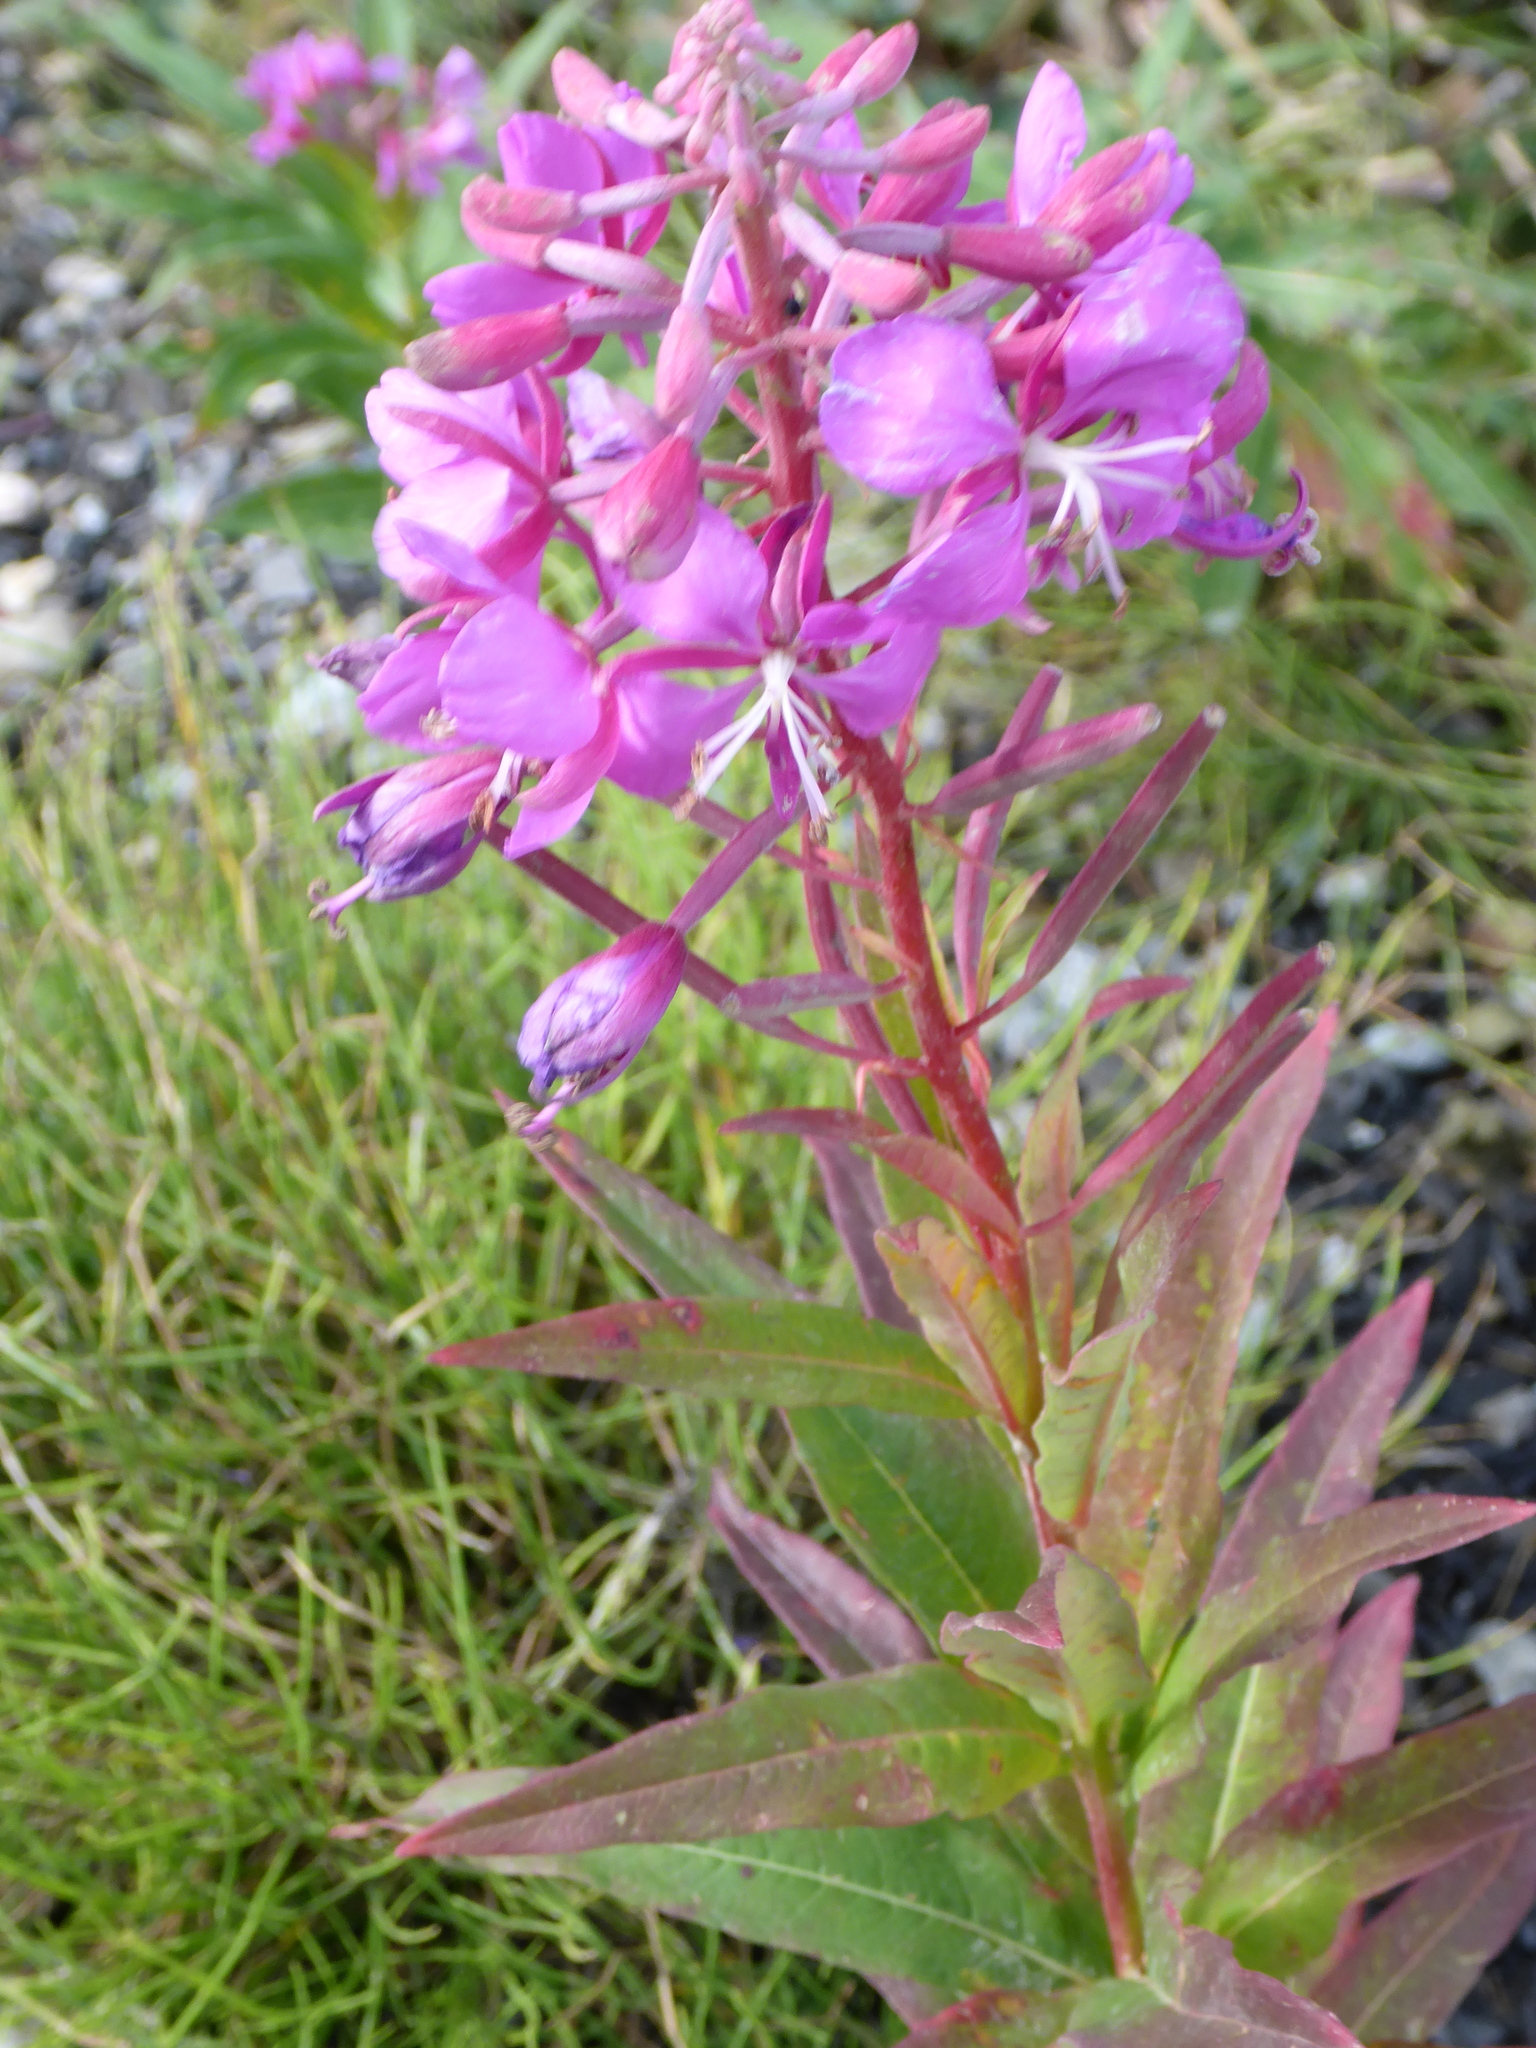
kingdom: Plantae
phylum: Tracheophyta
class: Magnoliopsida
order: Myrtales
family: Onagraceae
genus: Chamaenerion
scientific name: Chamaenerion angustifolium
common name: Fireweed
